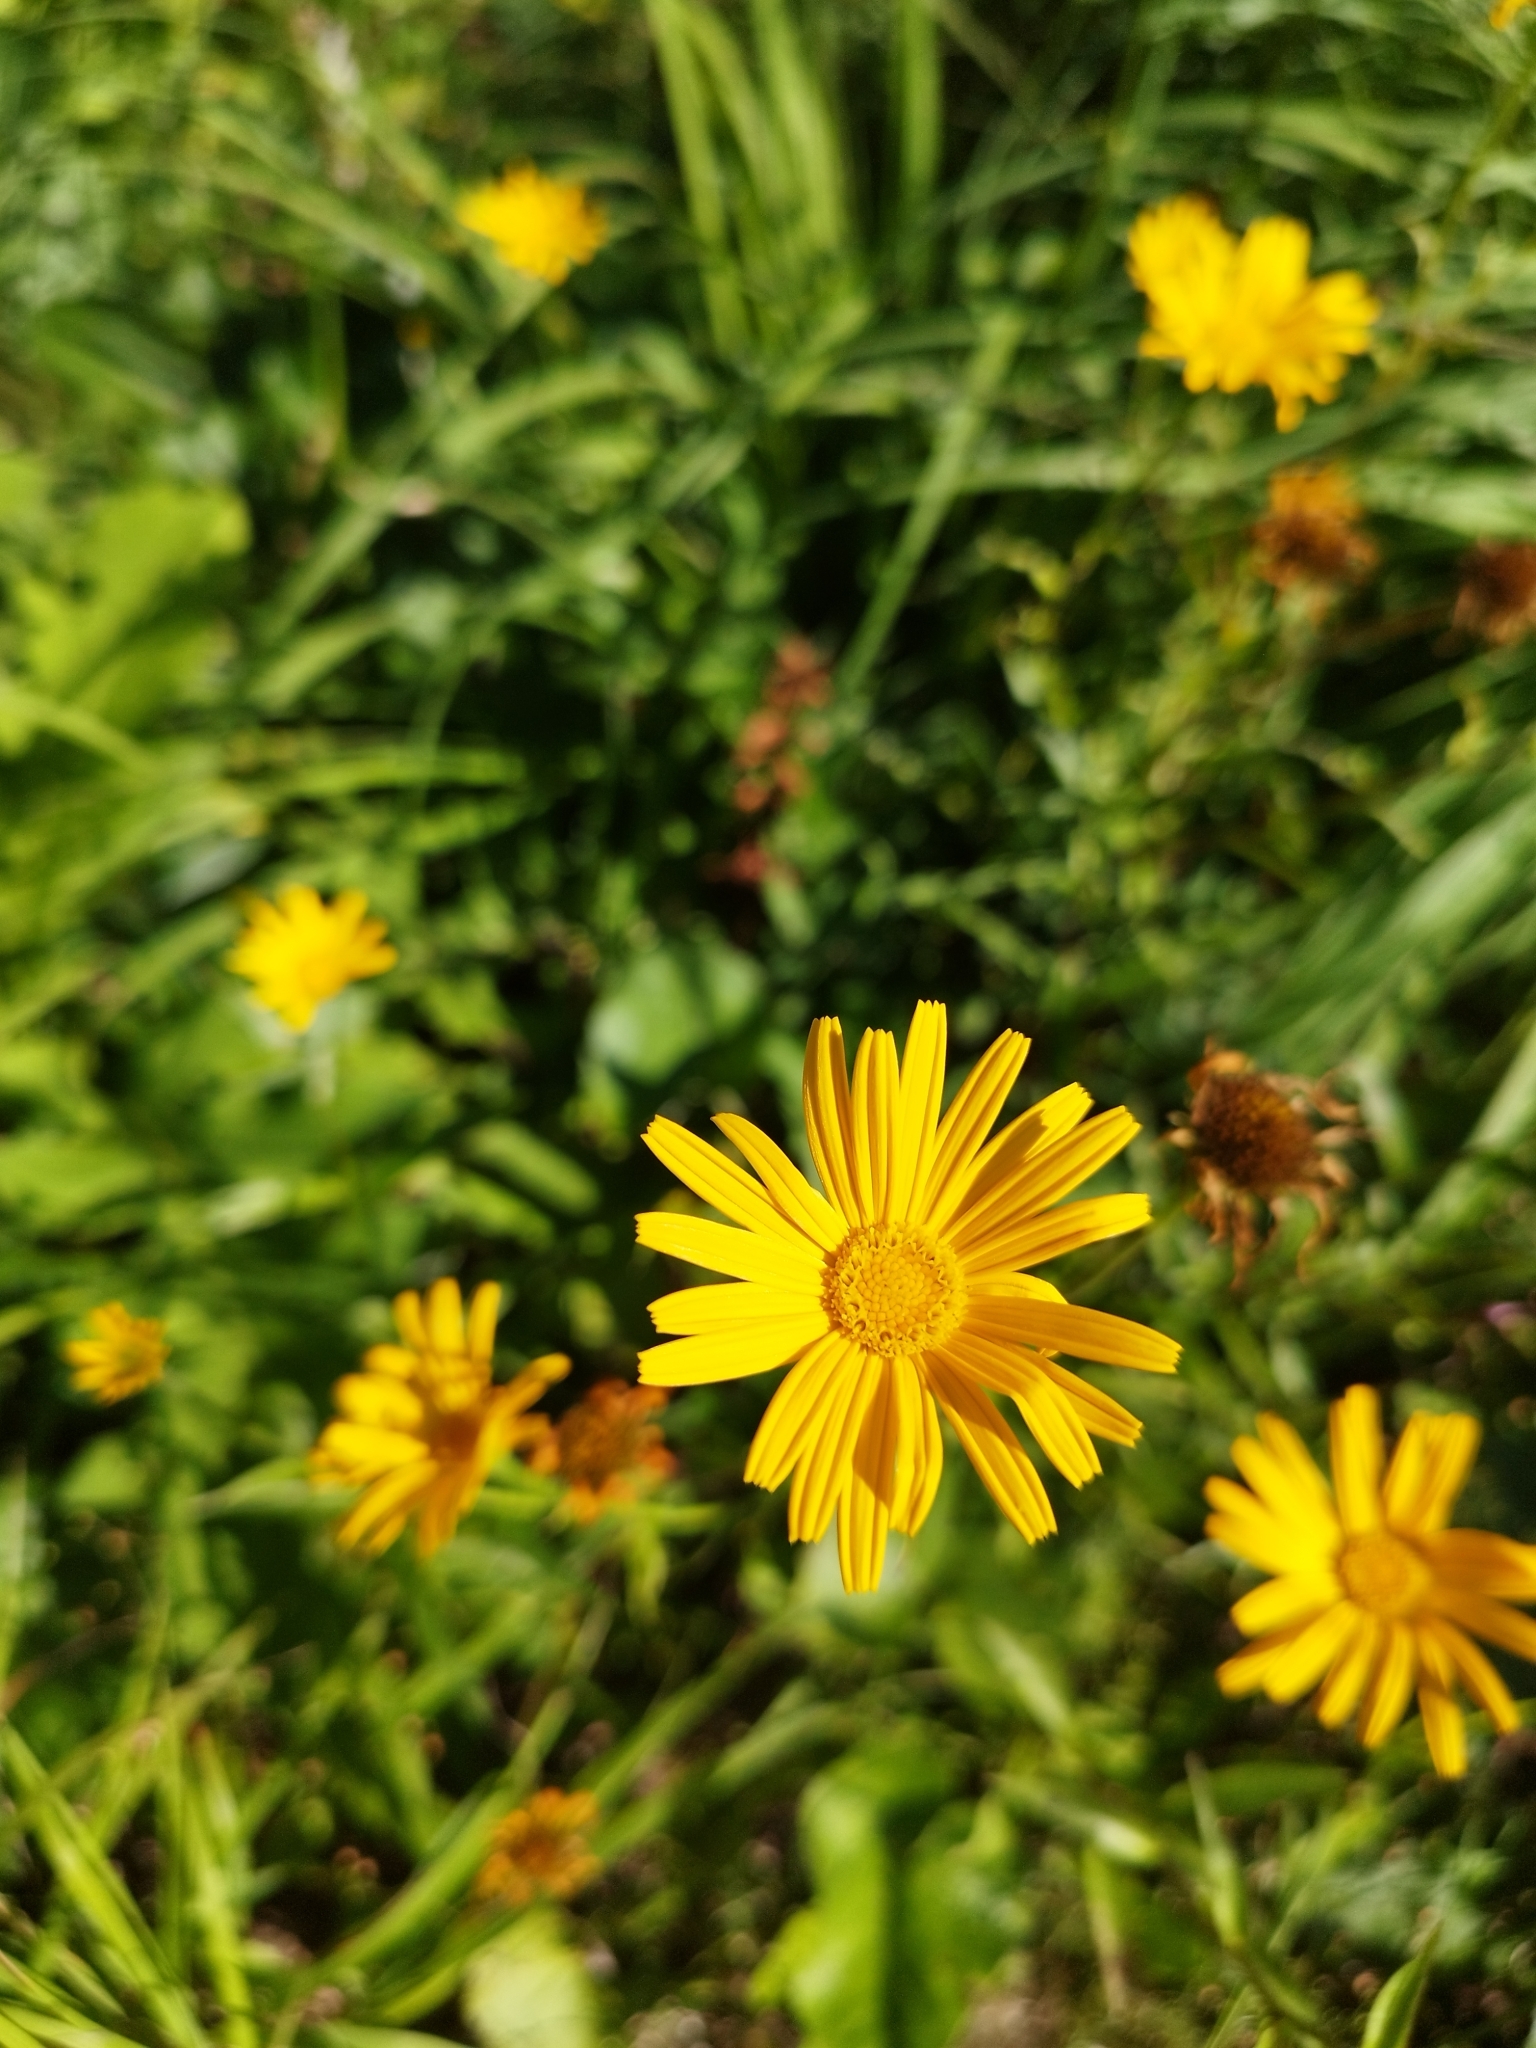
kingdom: Plantae
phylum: Tracheophyta
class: Magnoliopsida
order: Asterales
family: Asteraceae
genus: Buphthalmum
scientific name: Buphthalmum salicifolium
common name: Willow-leaved yellow-oxeye
